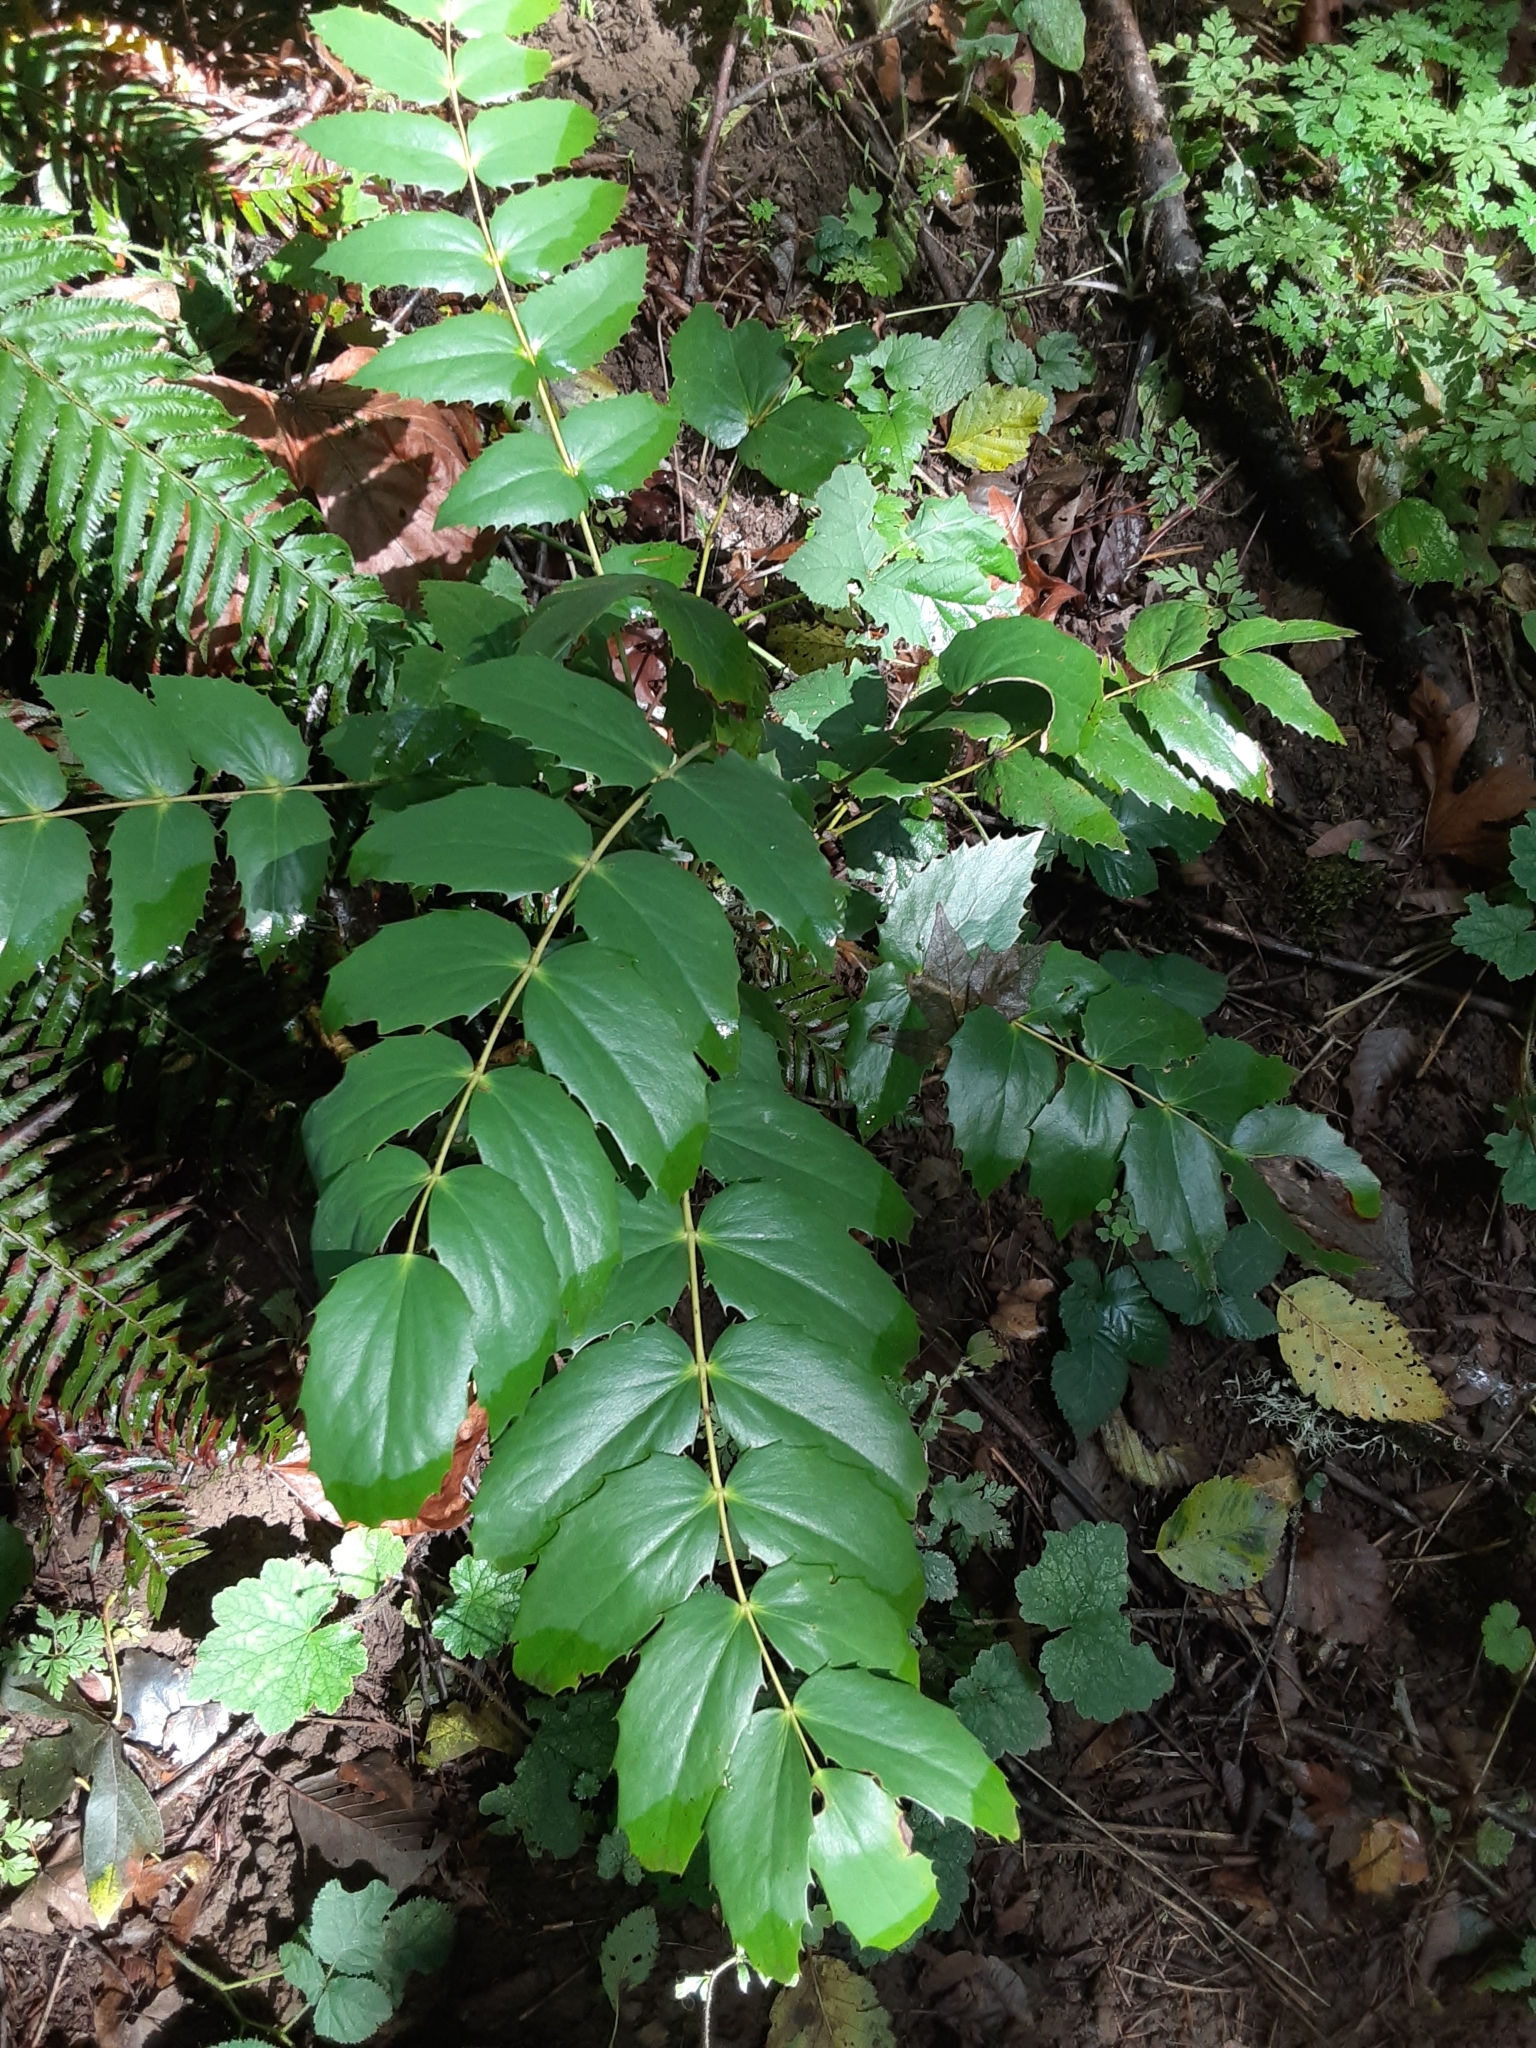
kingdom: Plantae
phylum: Tracheophyta
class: Magnoliopsida
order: Ranunculales
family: Berberidaceae
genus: Mahonia
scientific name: Mahonia nervosa
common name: Cascade oregon-grape
